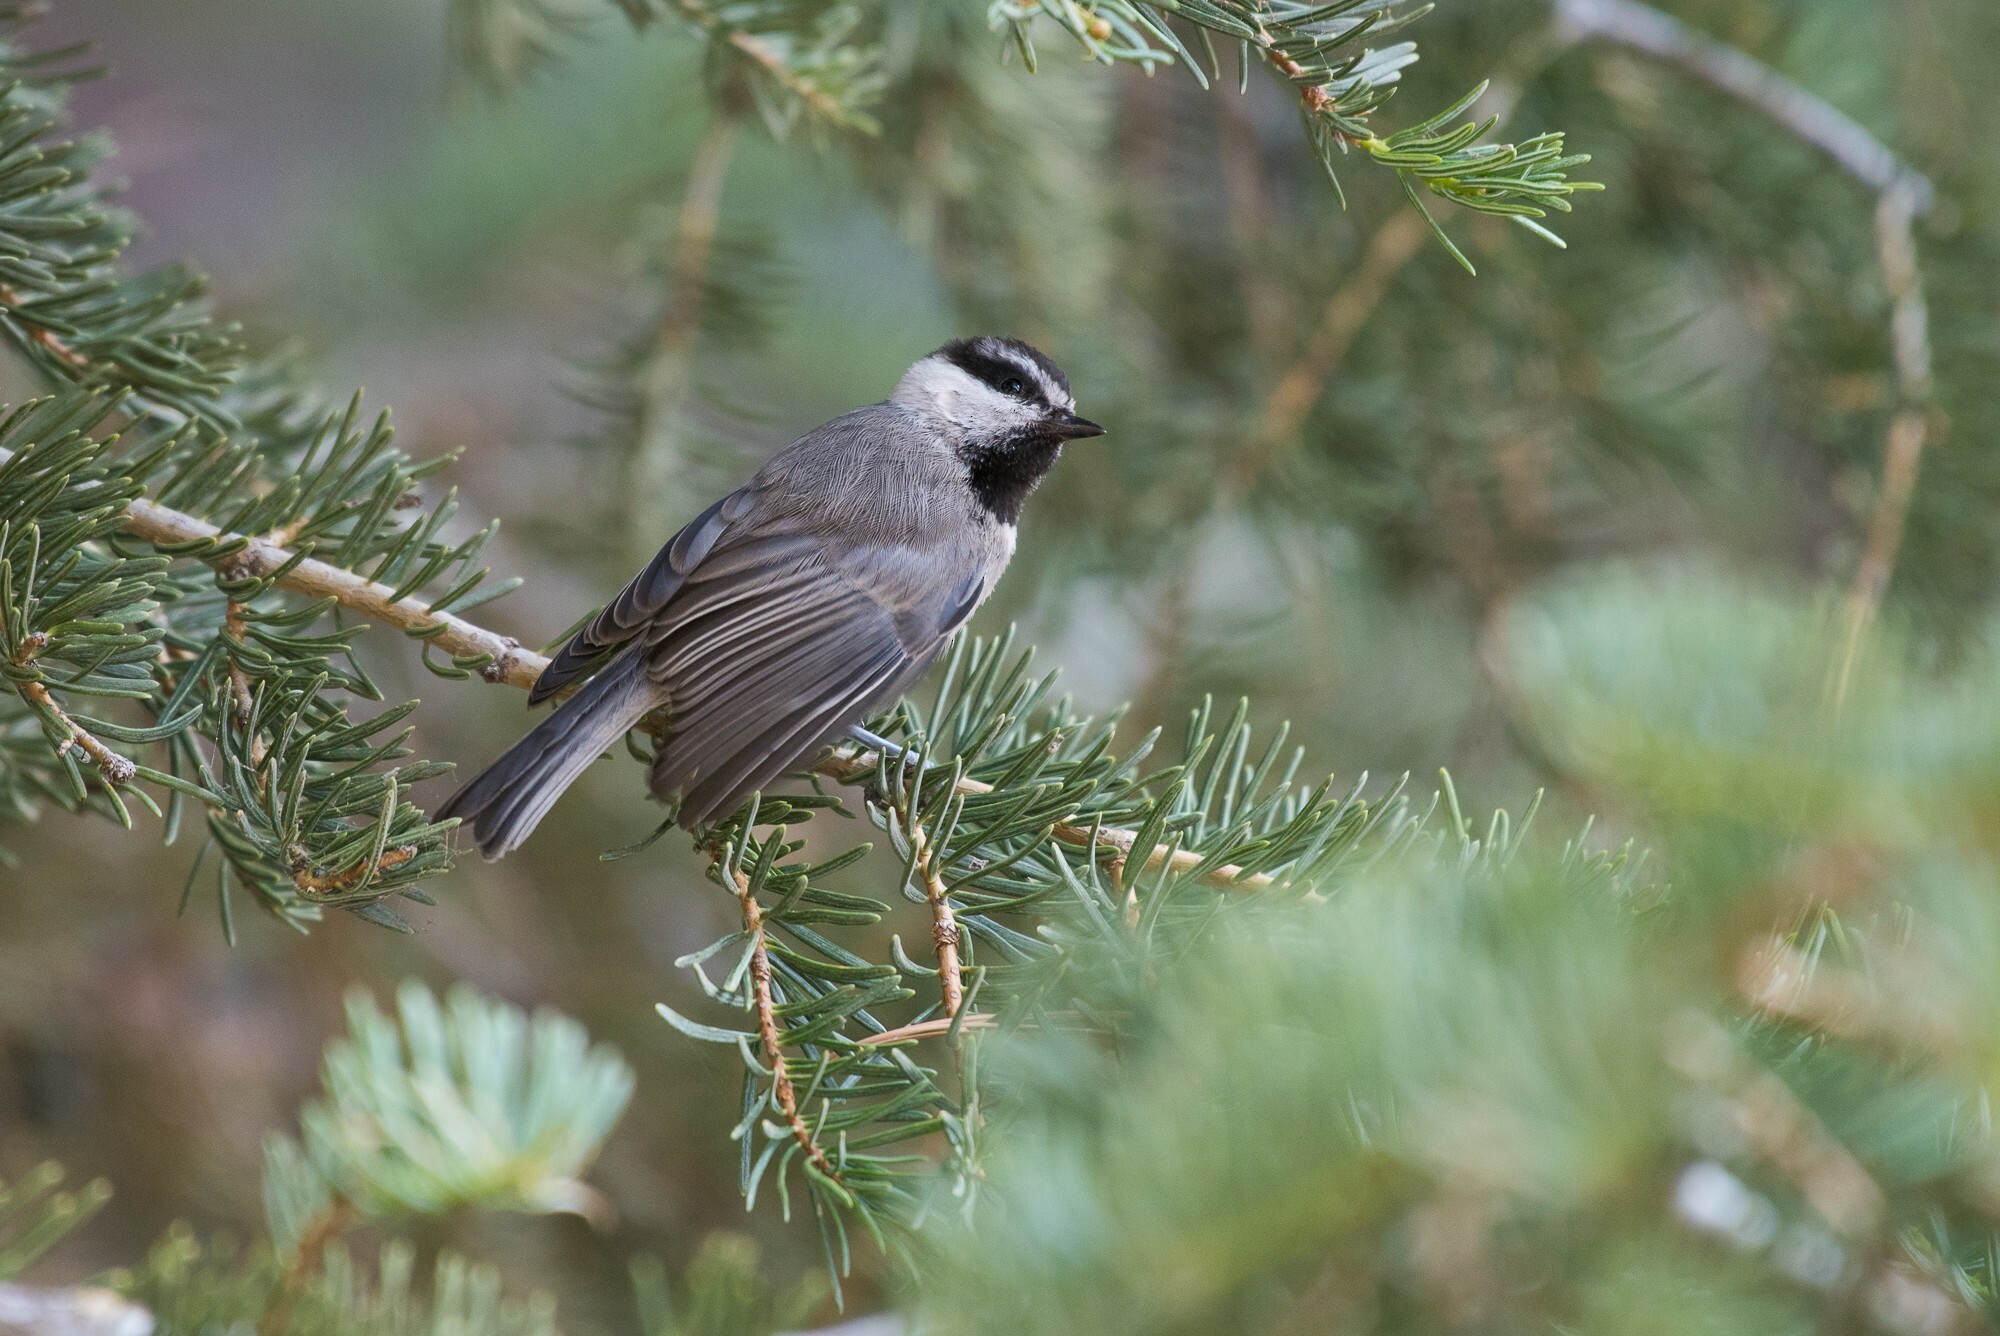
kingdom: Animalia
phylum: Chordata
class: Aves
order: Passeriformes
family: Paridae
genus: Poecile
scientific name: Poecile gambeli
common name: Mountain chickadee
